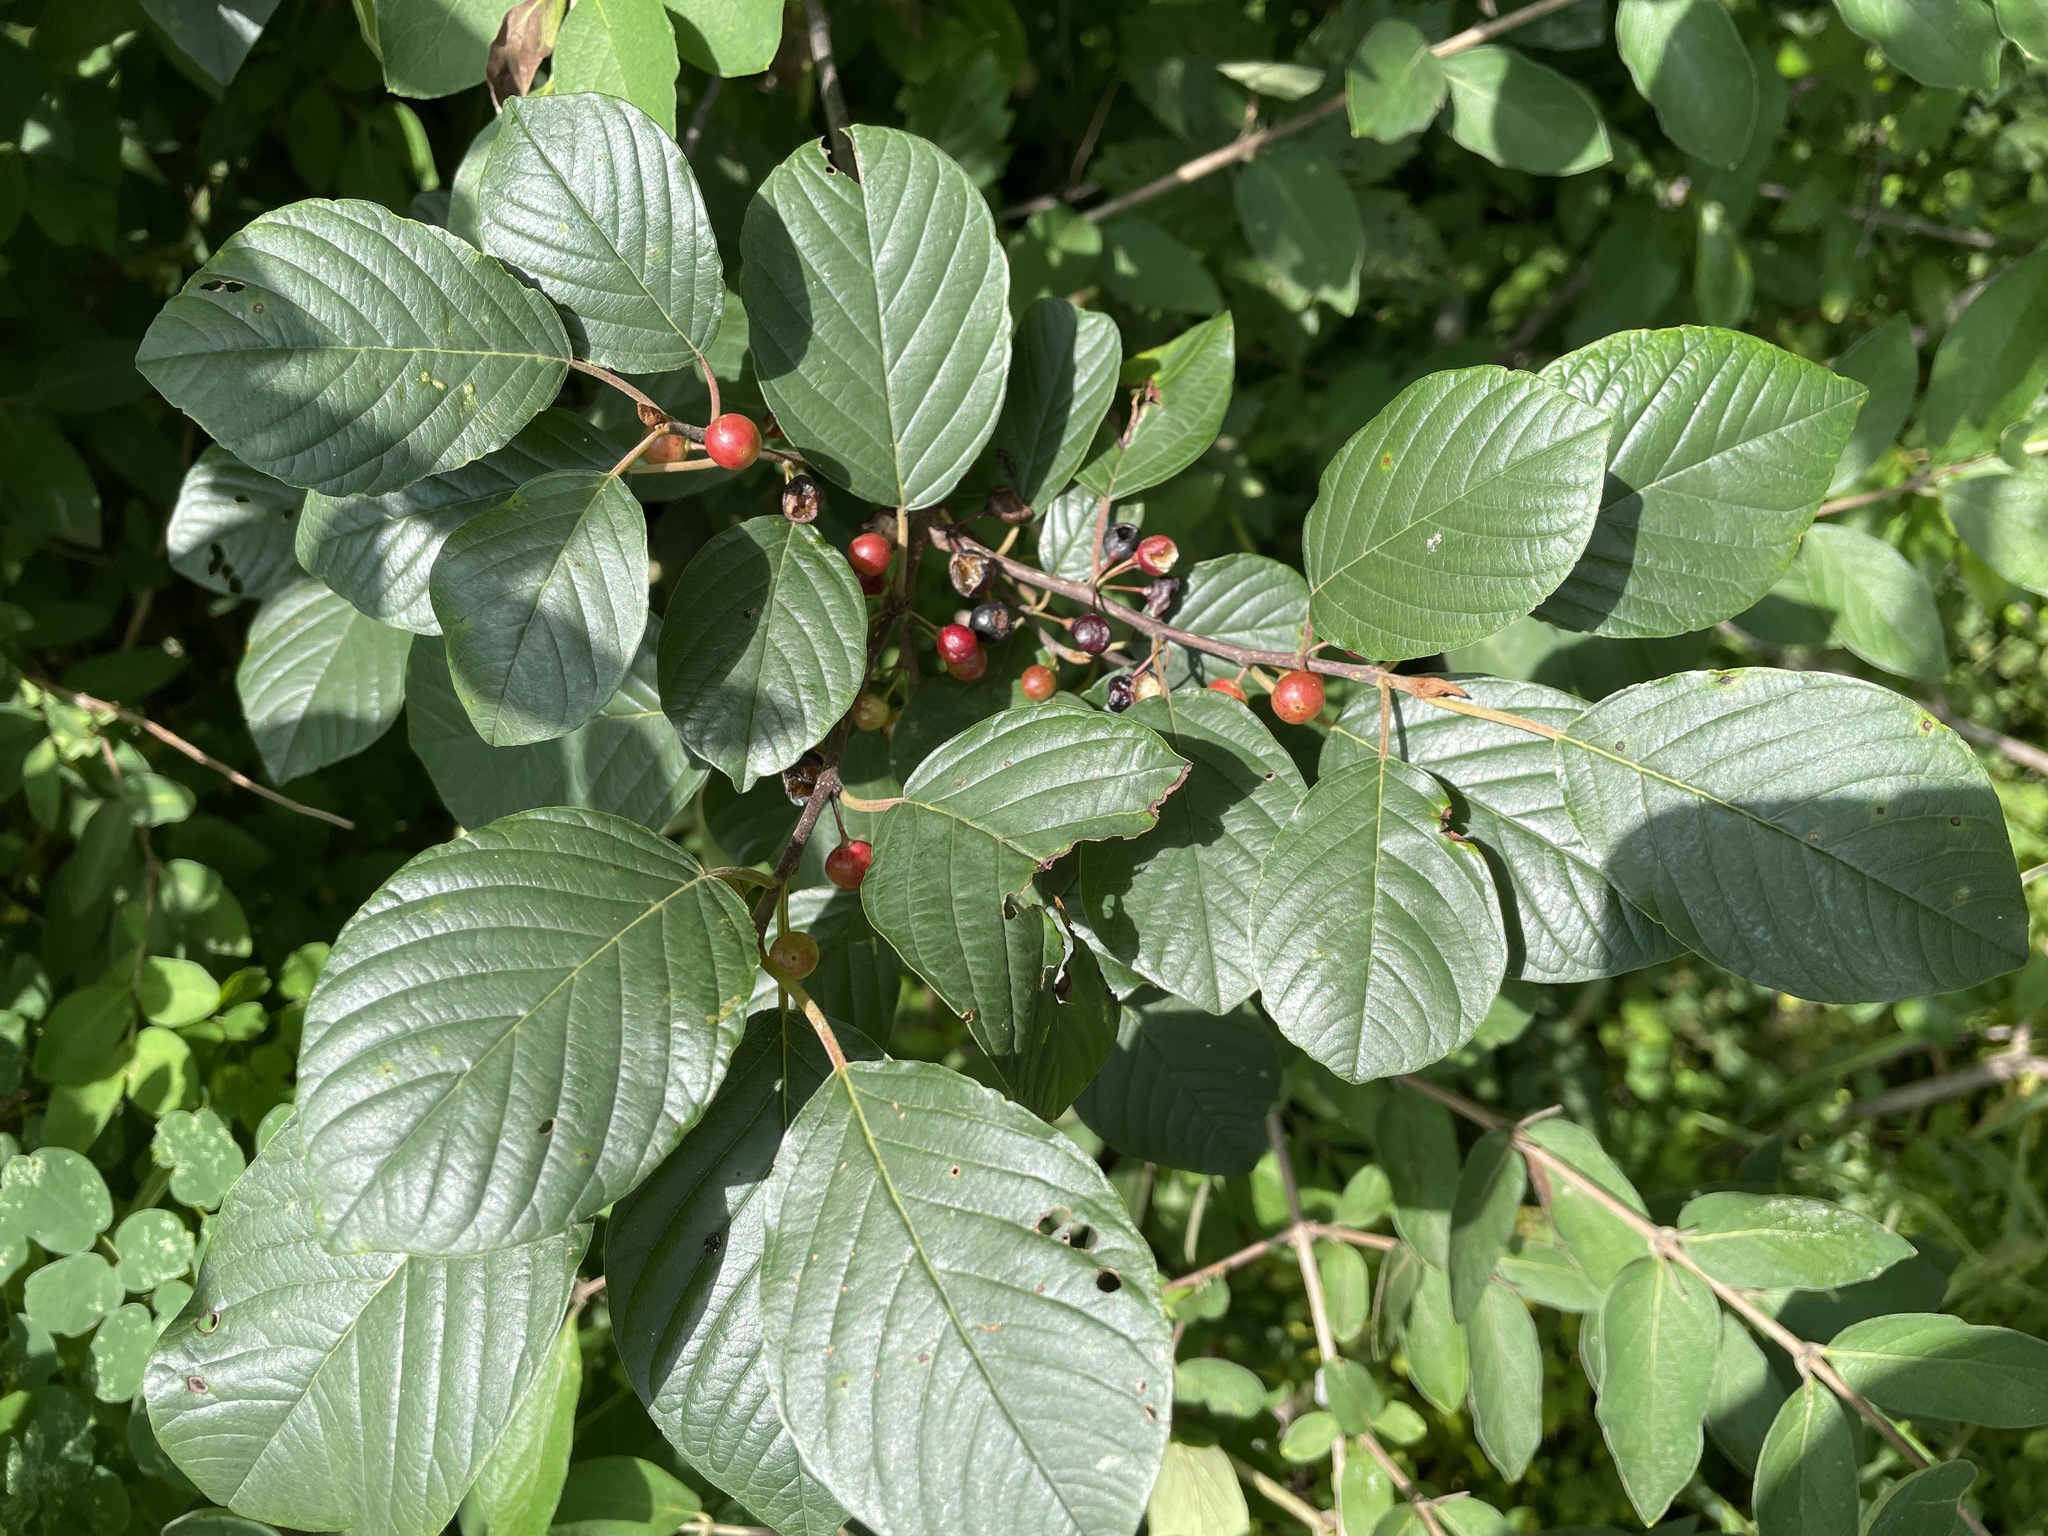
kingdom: Plantae
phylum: Tracheophyta
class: Magnoliopsida
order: Rosales
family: Rhamnaceae
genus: Frangula
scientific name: Frangula alnus
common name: Alder buckthorn
